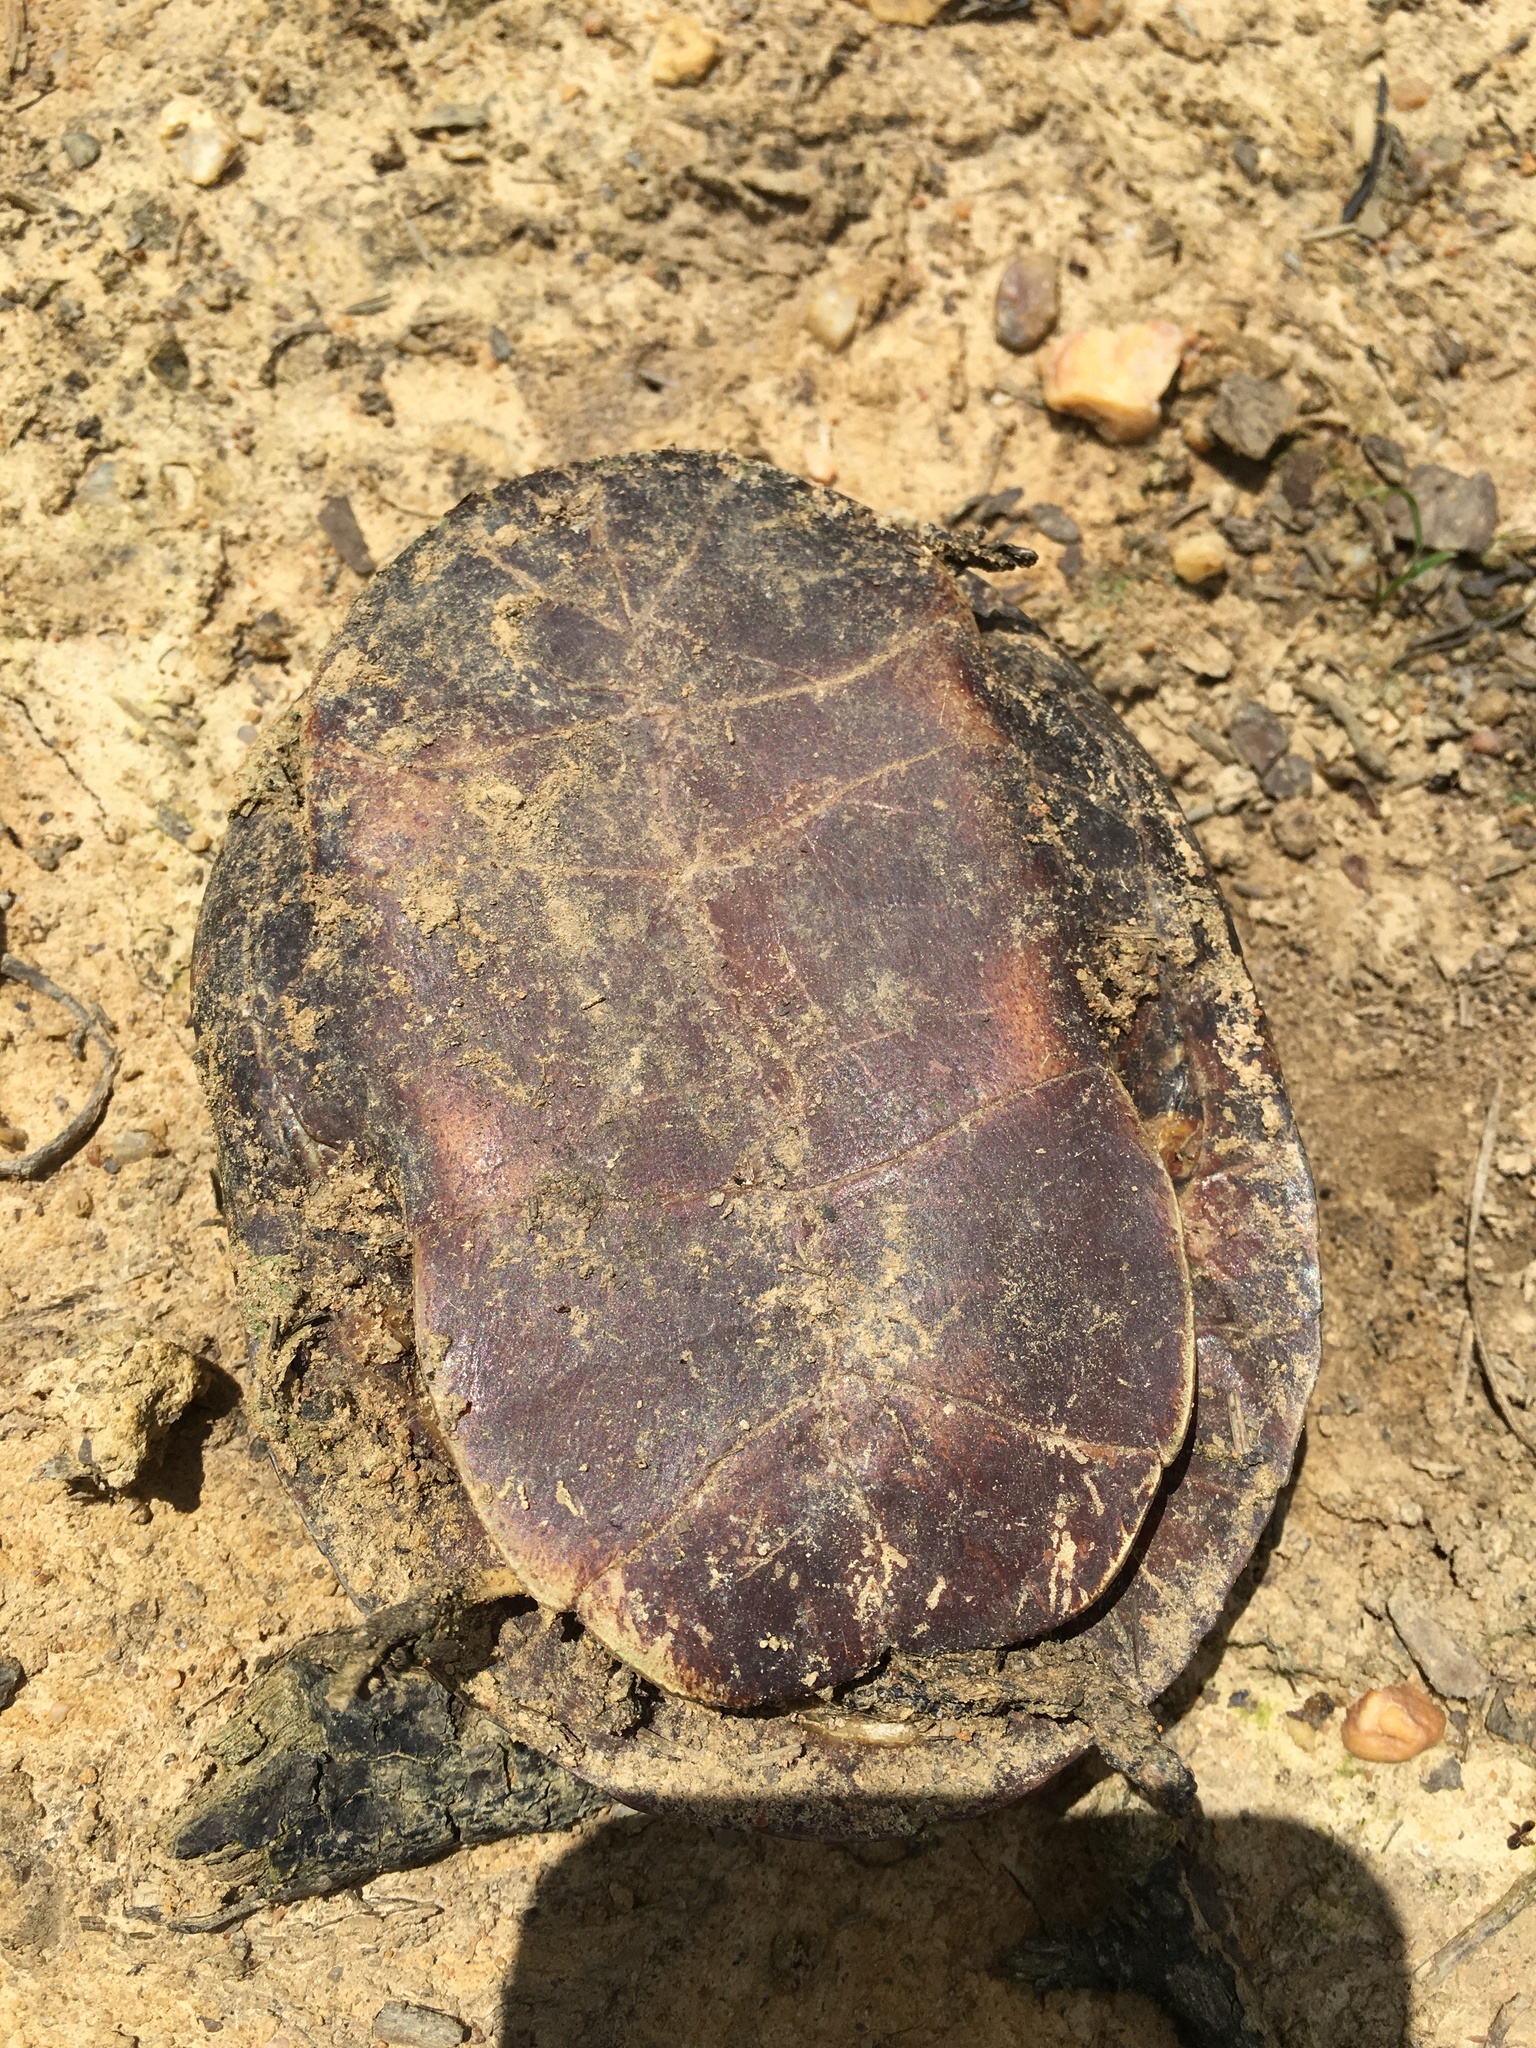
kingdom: Animalia
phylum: Chordata
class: Testudines
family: Emydidae
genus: Chrysemys
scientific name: Chrysemys picta
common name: Painted turtle
